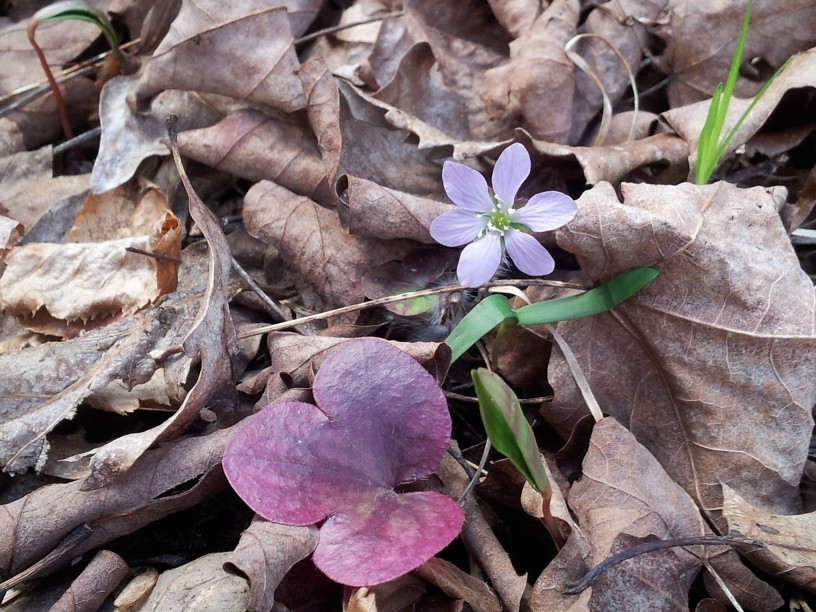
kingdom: Plantae
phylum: Tracheophyta
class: Magnoliopsida
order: Ranunculales
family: Ranunculaceae
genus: Hepatica
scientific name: Hepatica acutiloba
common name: Sharp-lobed hepatica
